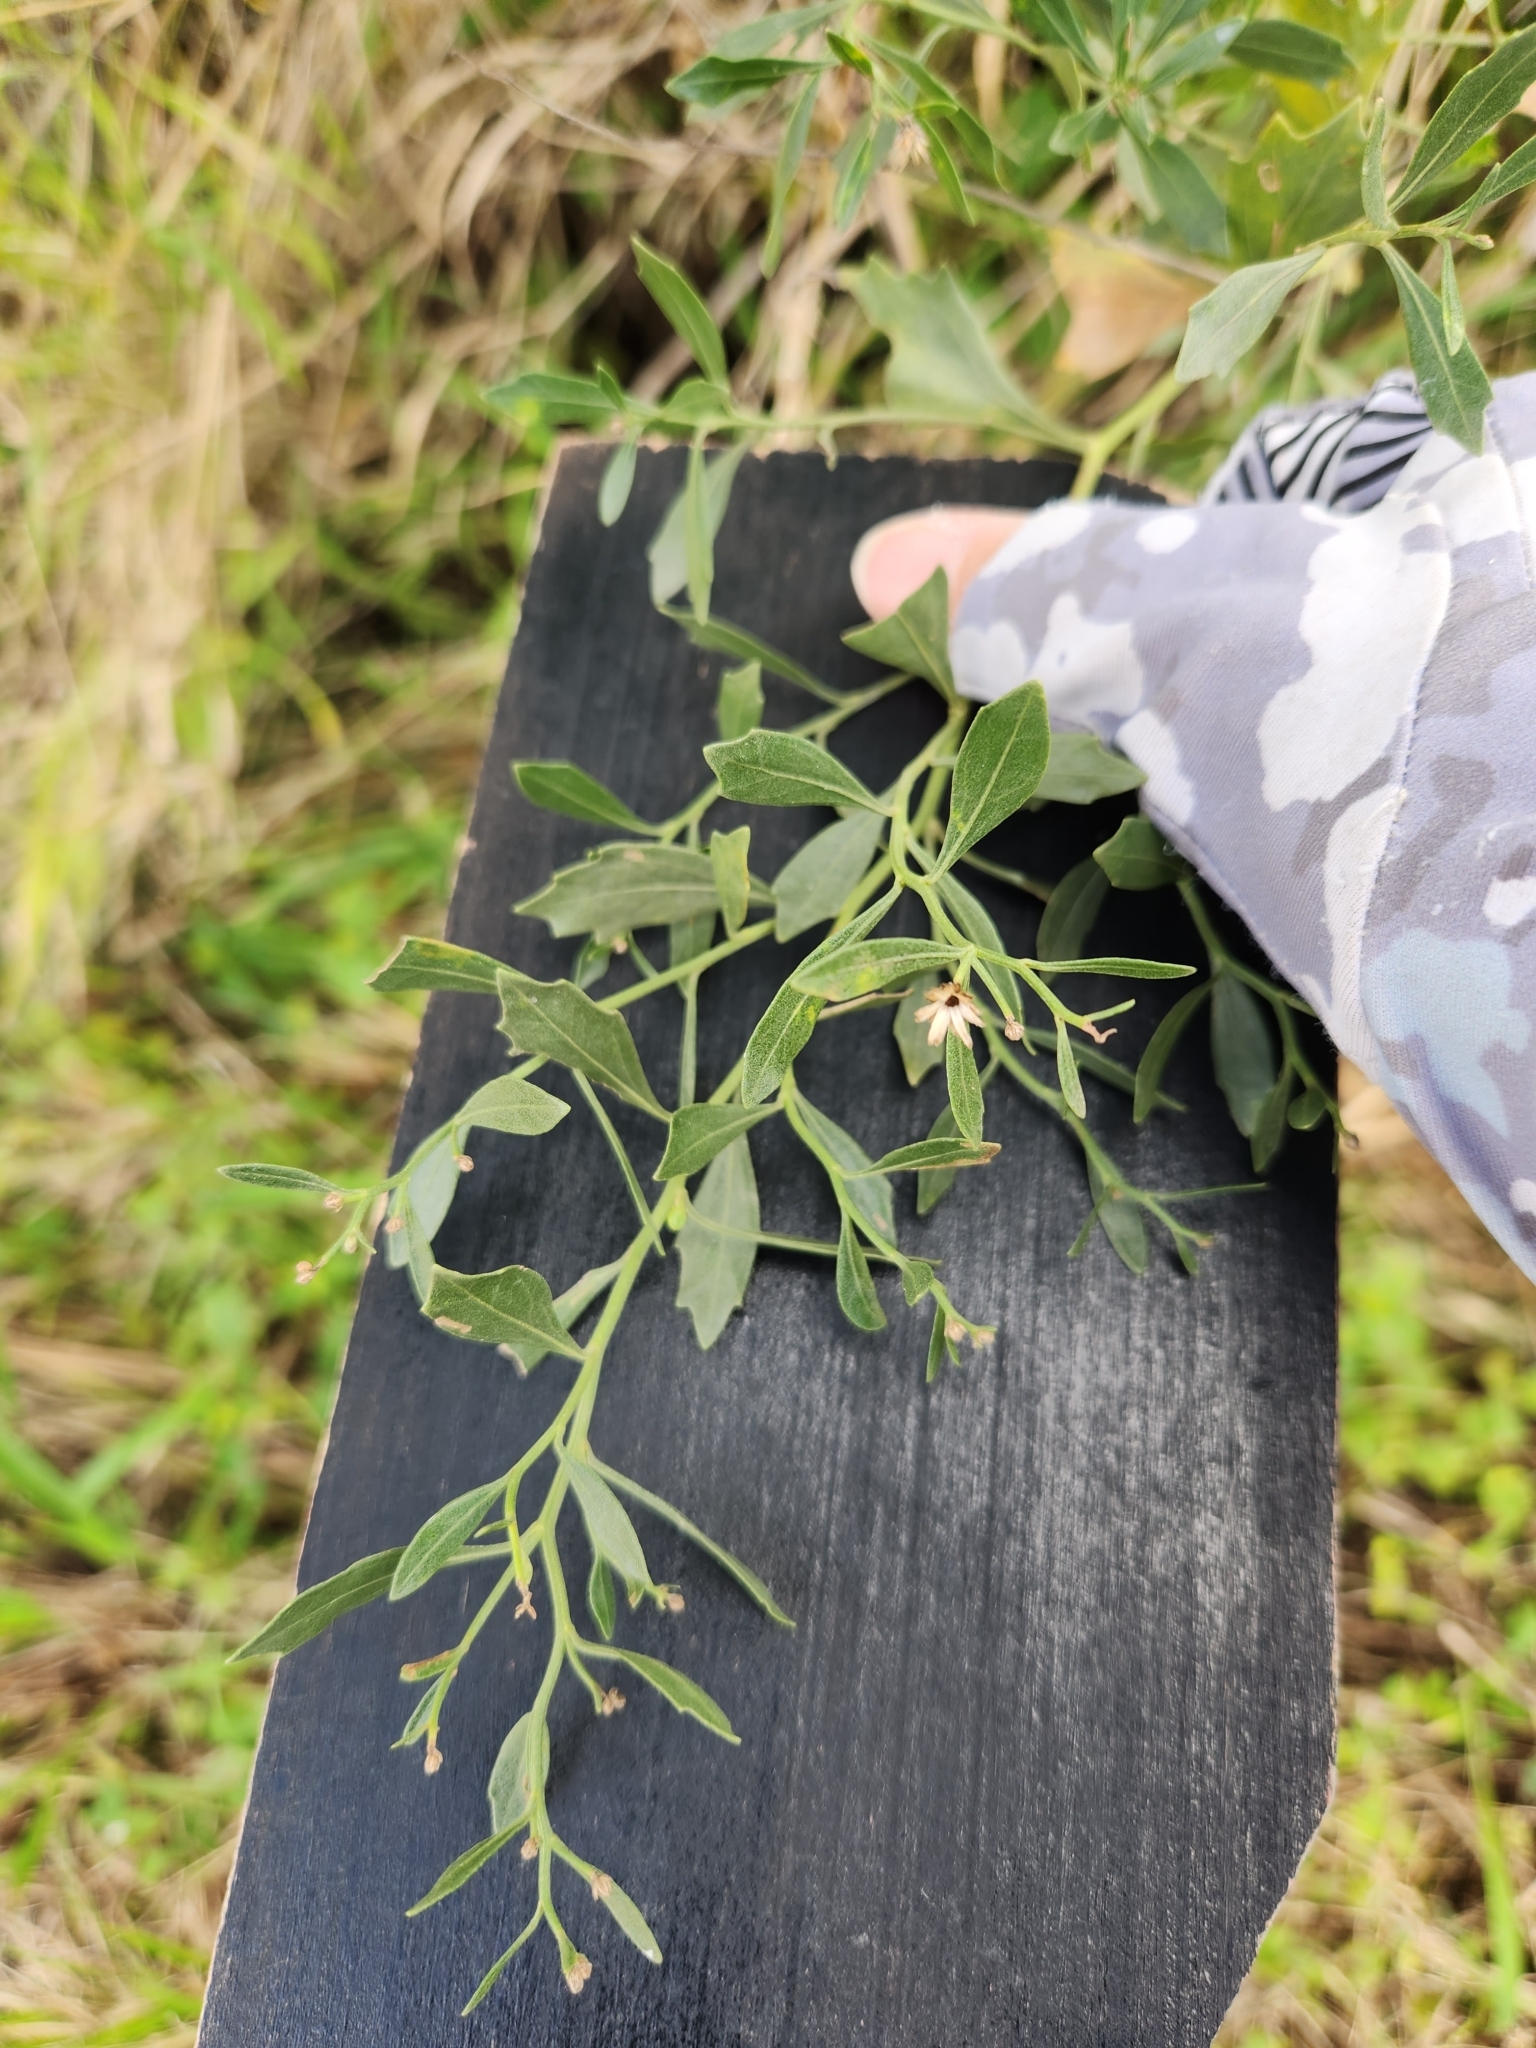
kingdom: Plantae
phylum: Tracheophyta
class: Magnoliopsida
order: Asterales
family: Asteraceae
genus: Baccharis
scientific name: Baccharis halimifolia
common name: Eastern baccharis
